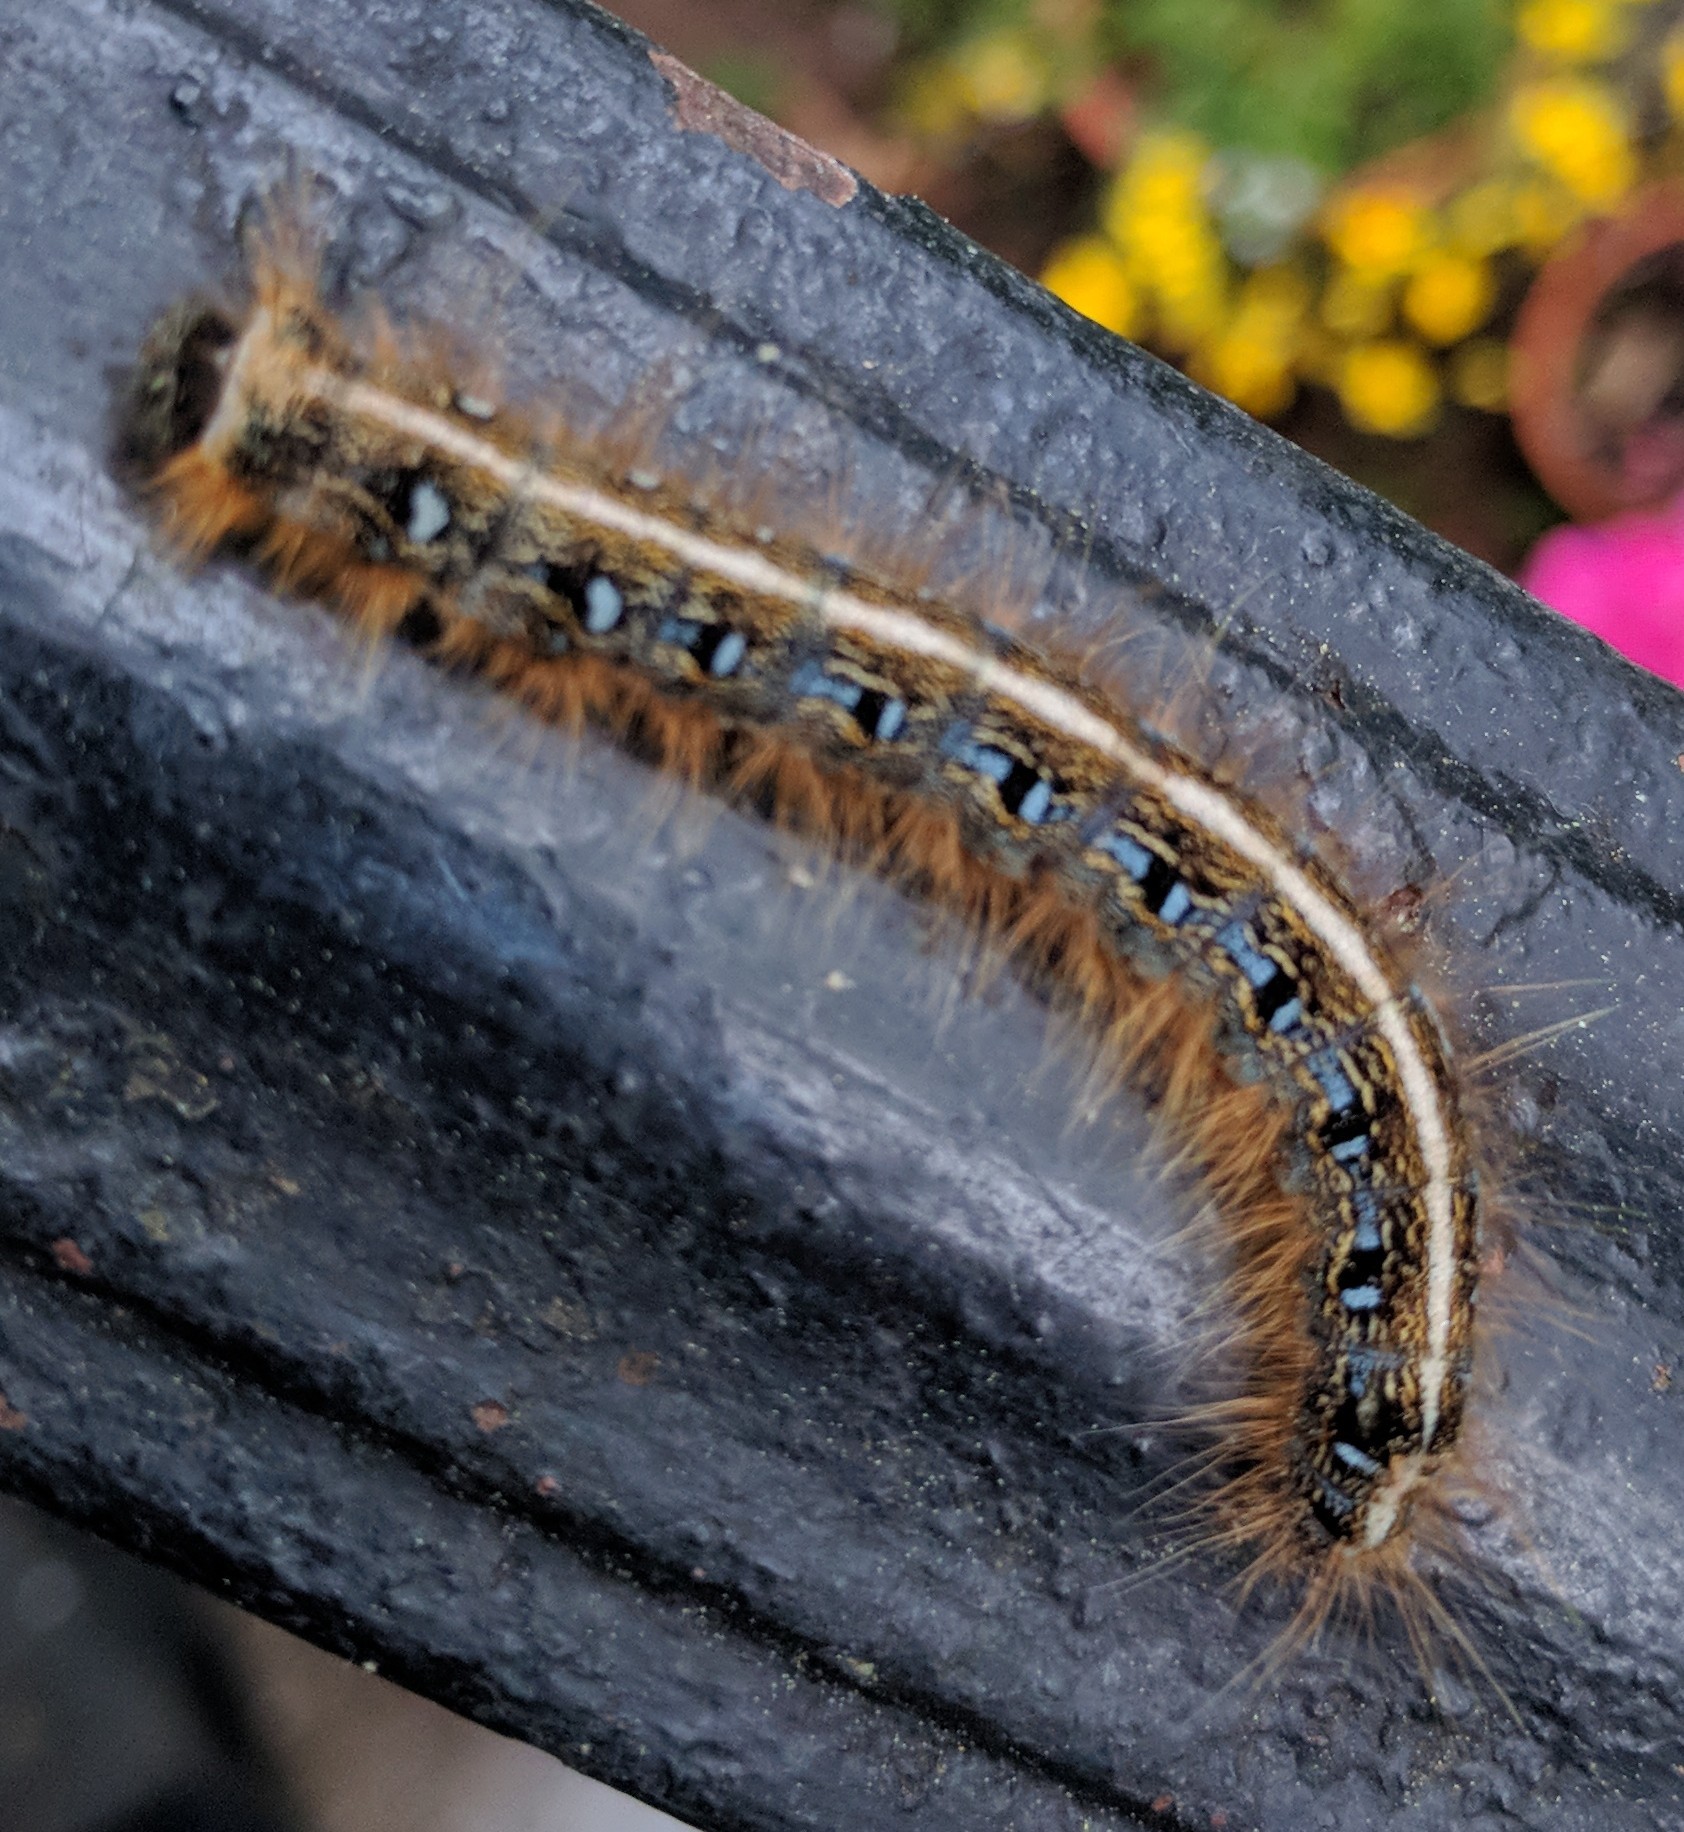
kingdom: Animalia
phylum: Arthropoda
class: Insecta
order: Lepidoptera
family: Lasiocampidae
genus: Malacosoma
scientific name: Malacosoma americana
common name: Eastern tent caterpillar moth
